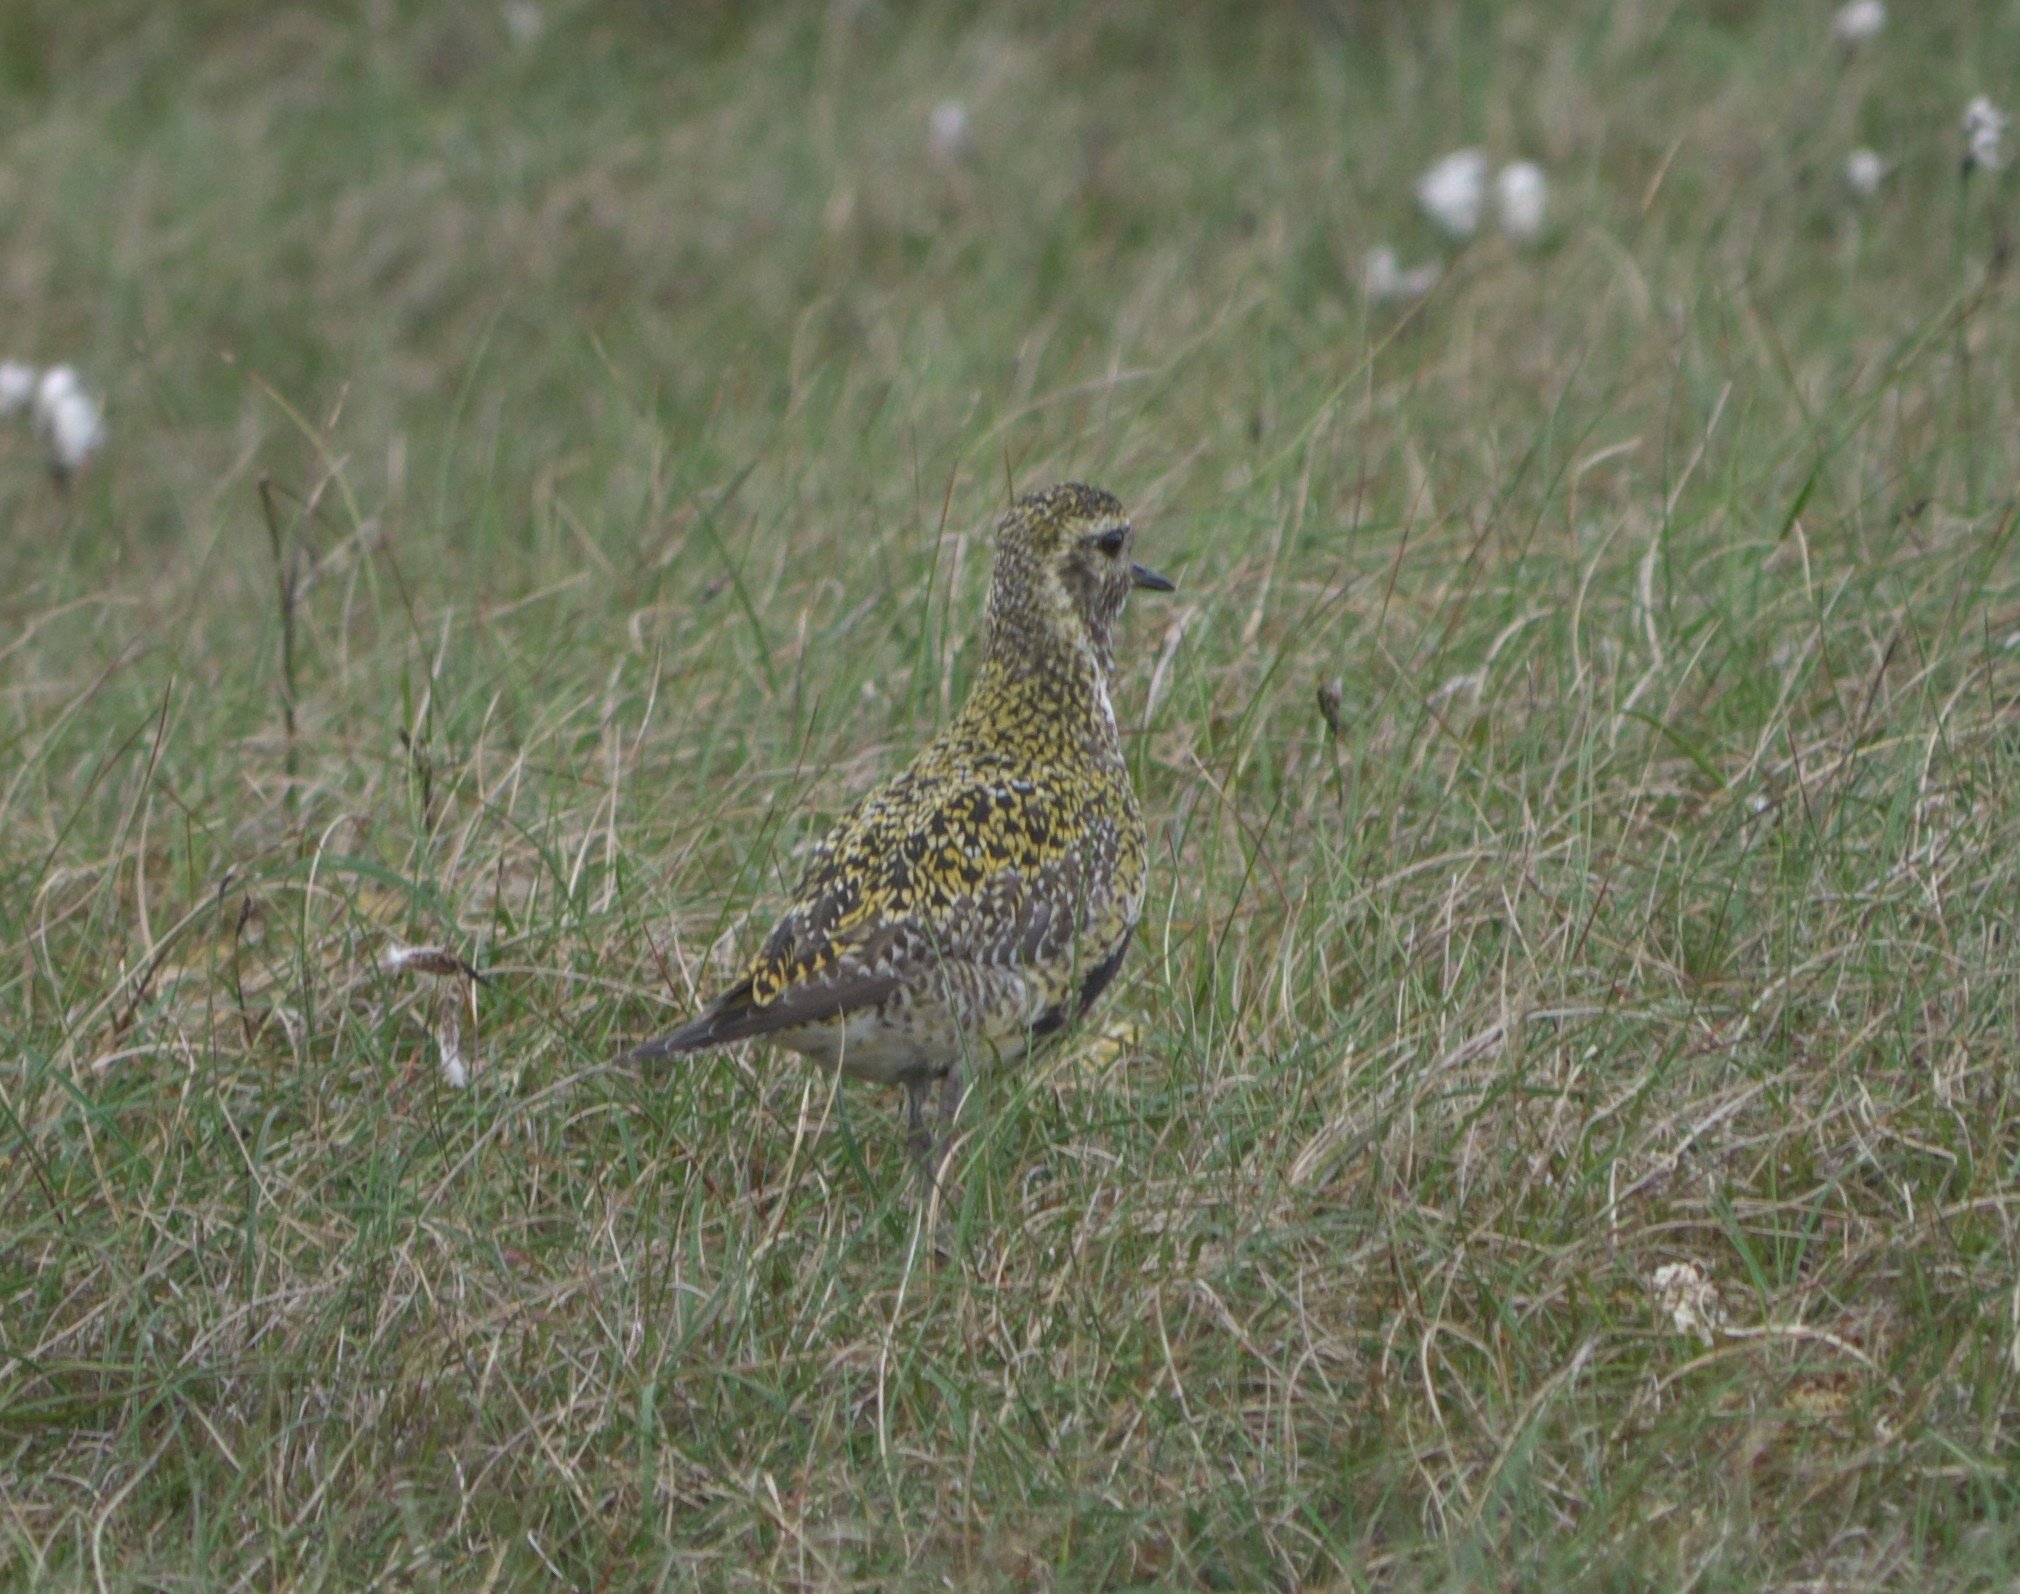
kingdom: Animalia
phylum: Chordata
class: Aves
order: Charadriiformes
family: Charadriidae
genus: Pluvialis
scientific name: Pluvialis apricaria
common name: European golden plover
